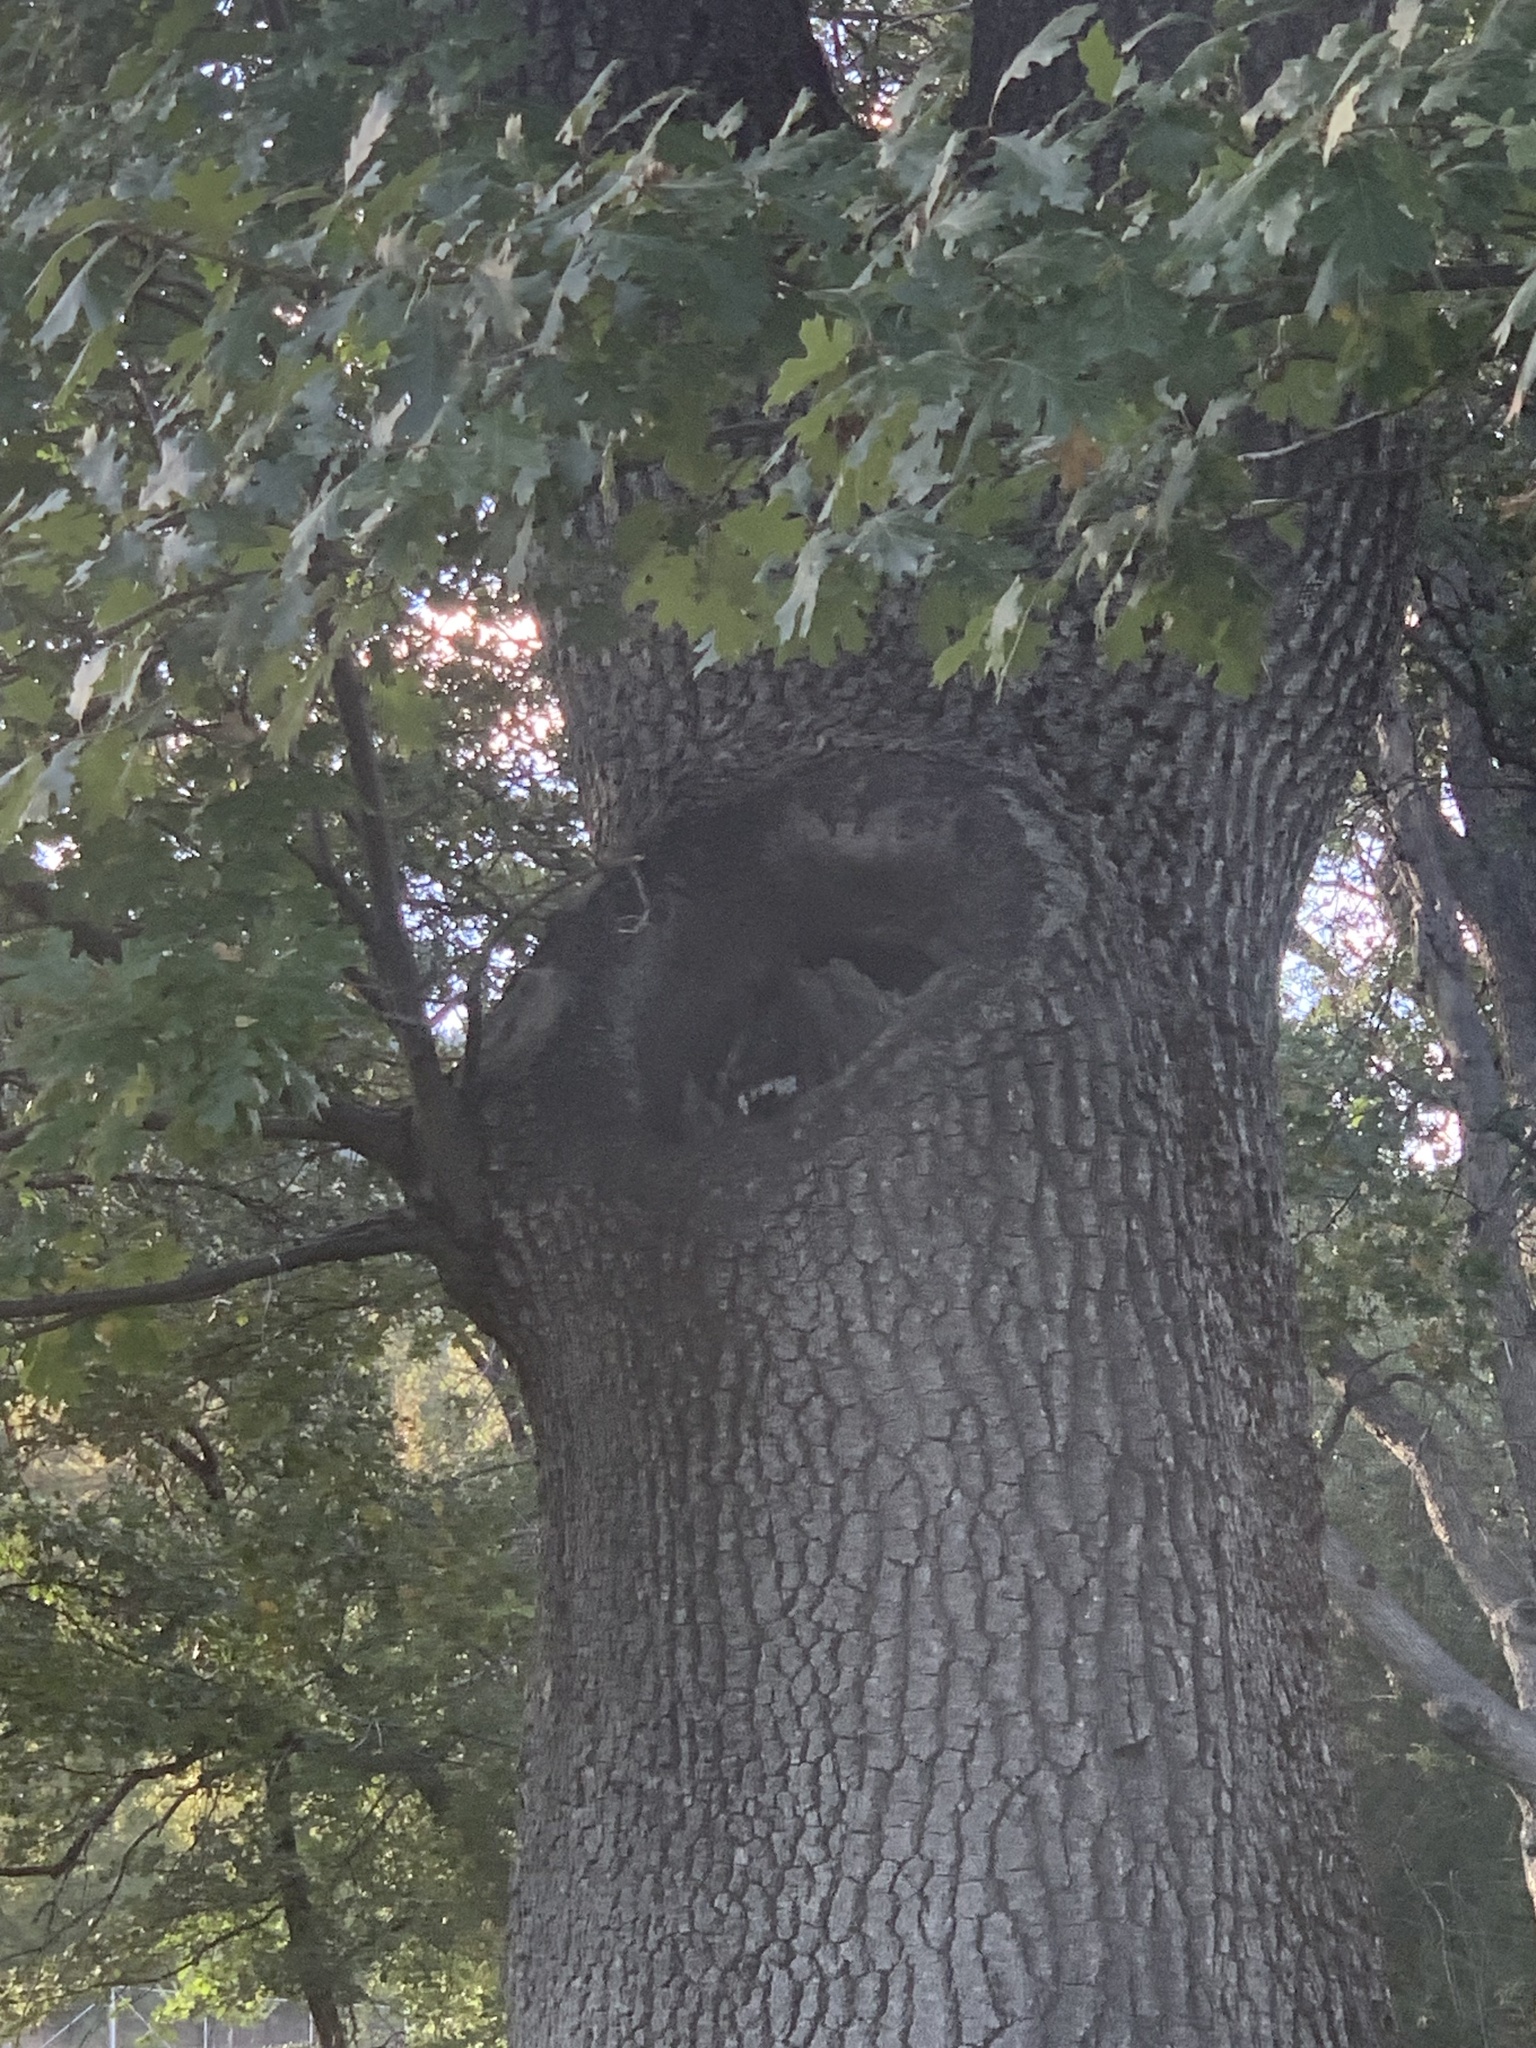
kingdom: Animalia
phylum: Chordata
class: Aves
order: Piciformes
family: Picidae
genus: Melanerpes
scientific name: Melanerpes formicivorus
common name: Acorn woodpecker
